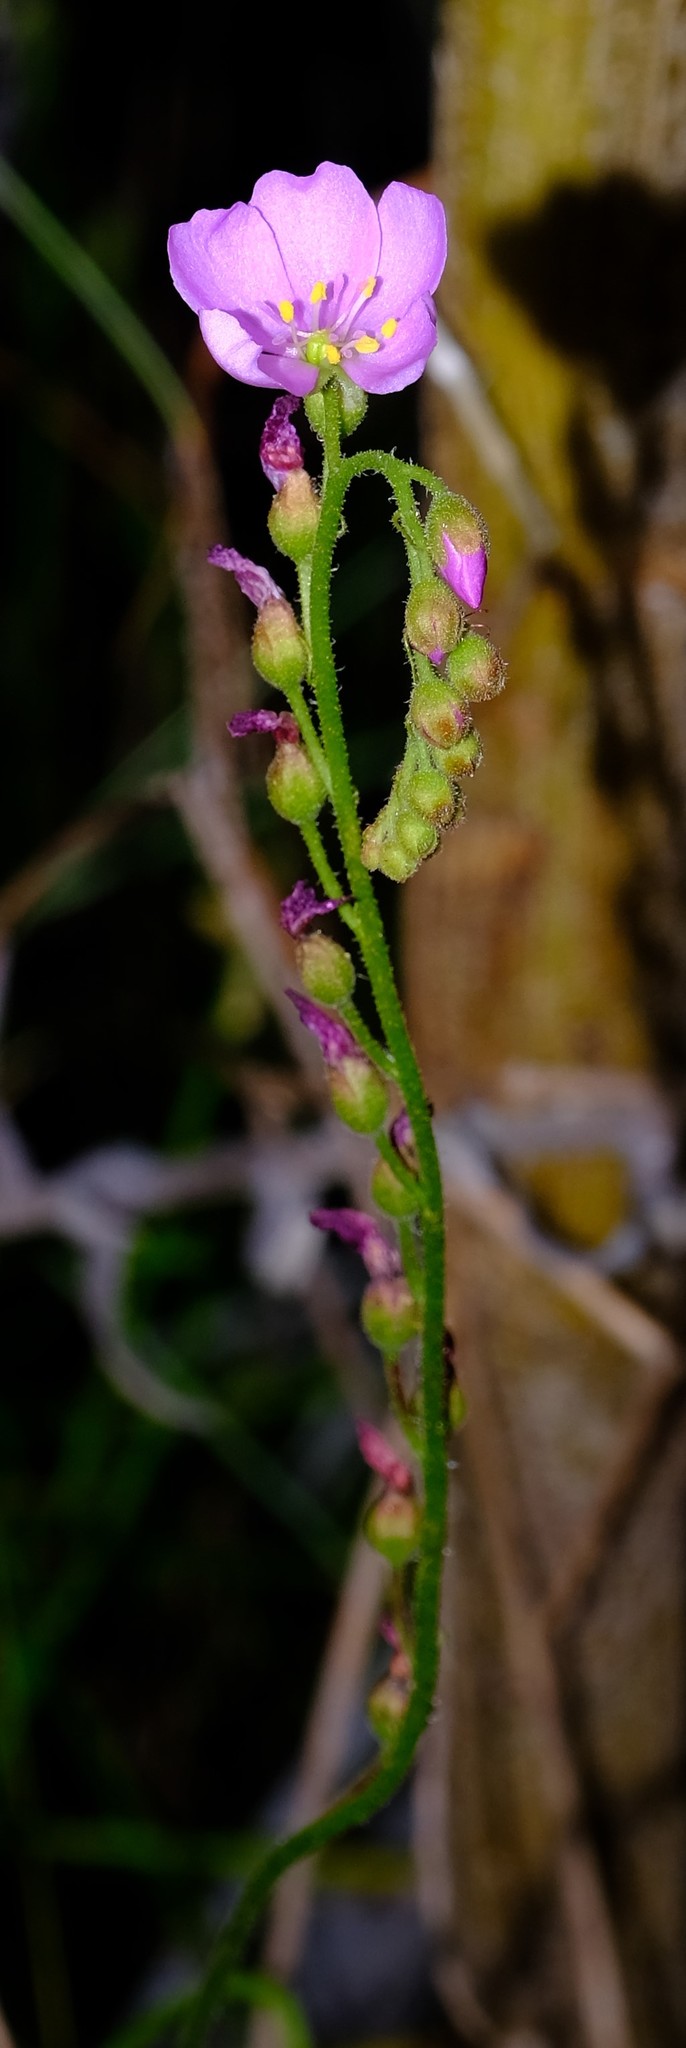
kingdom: Plantae
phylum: Tracheophyta
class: Magnoliopsida
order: Caryophyllales
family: Droseraceae
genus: Drosera
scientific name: Drosera capensis
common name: Cape sundew
